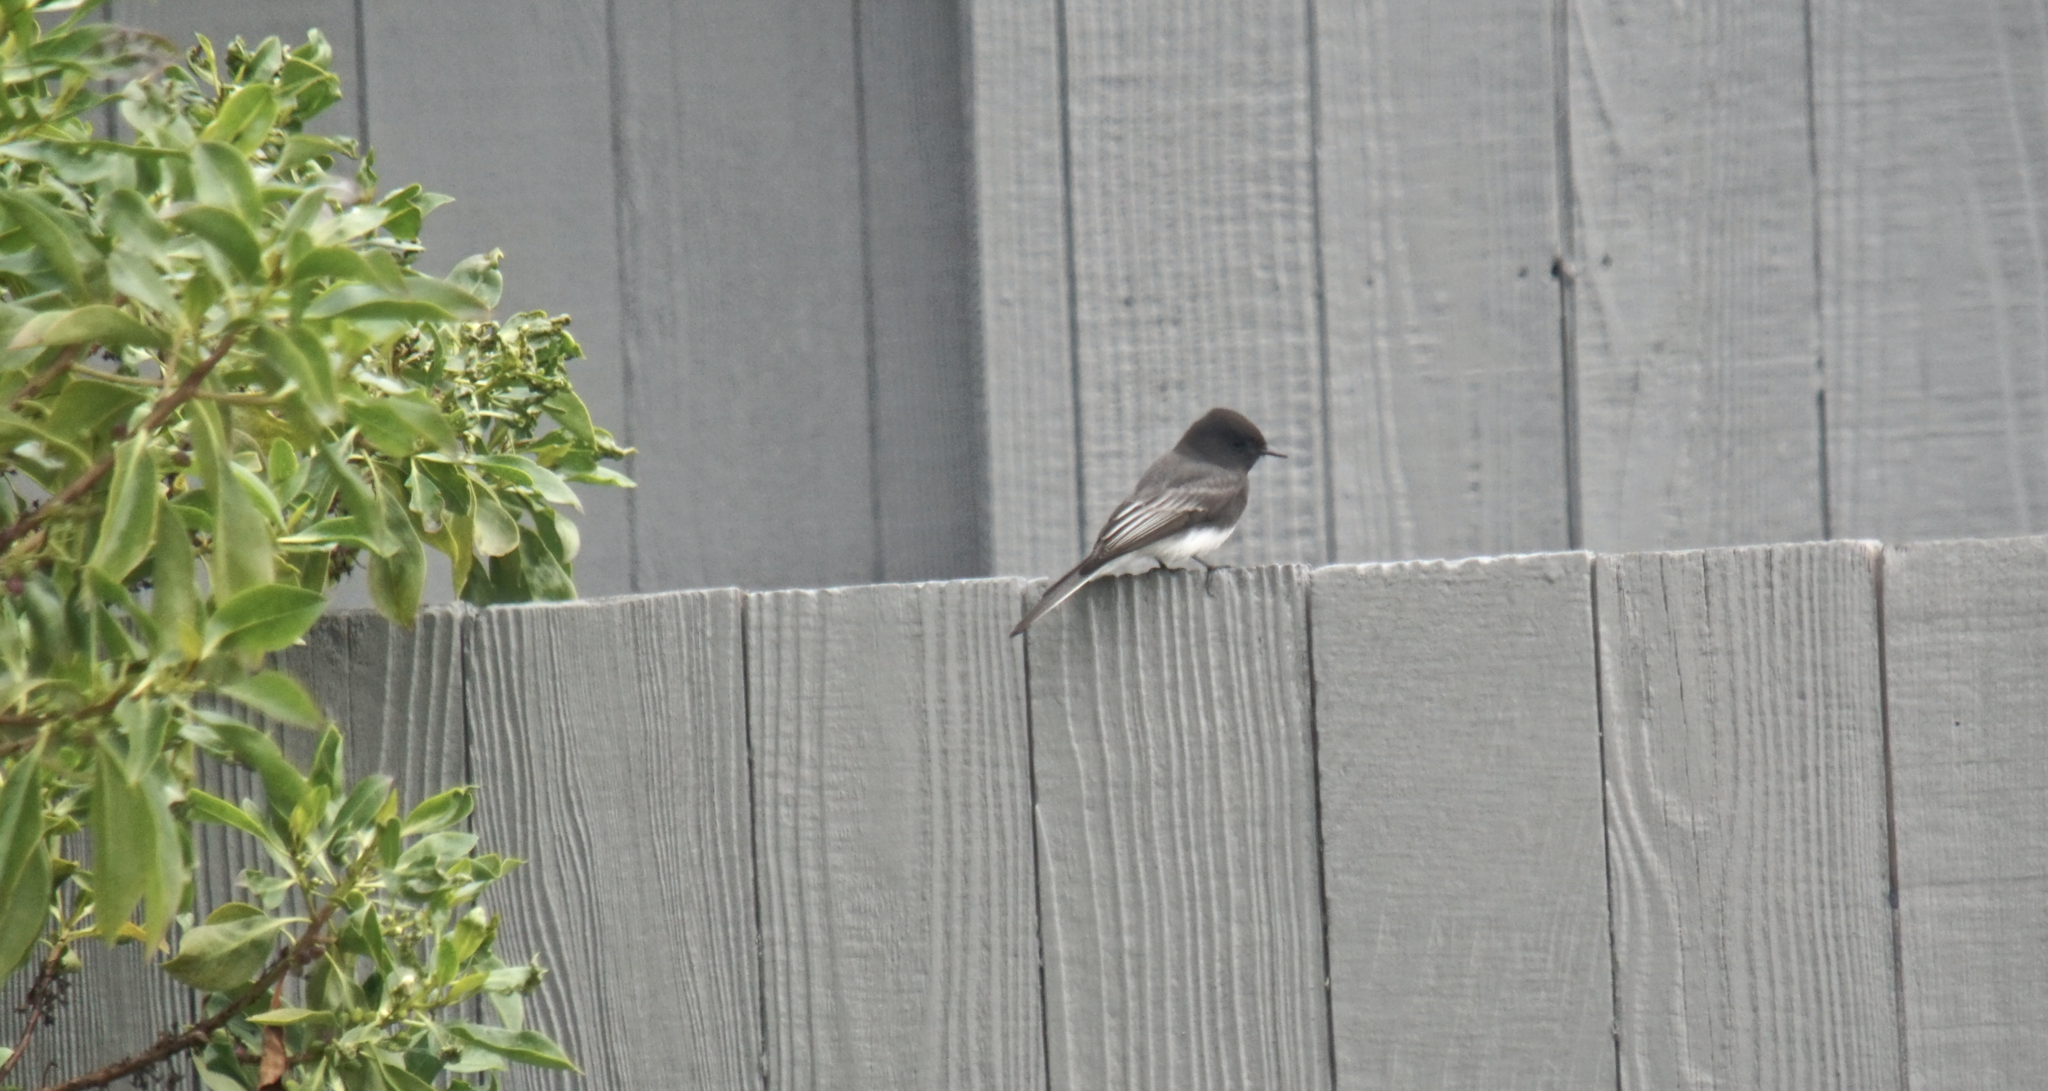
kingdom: Animalia
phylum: Chordata
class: Aves
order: Passeriformes
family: Tyrannidae
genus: Sayornis
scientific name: Sayornis nigricans
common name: Black phoebe
